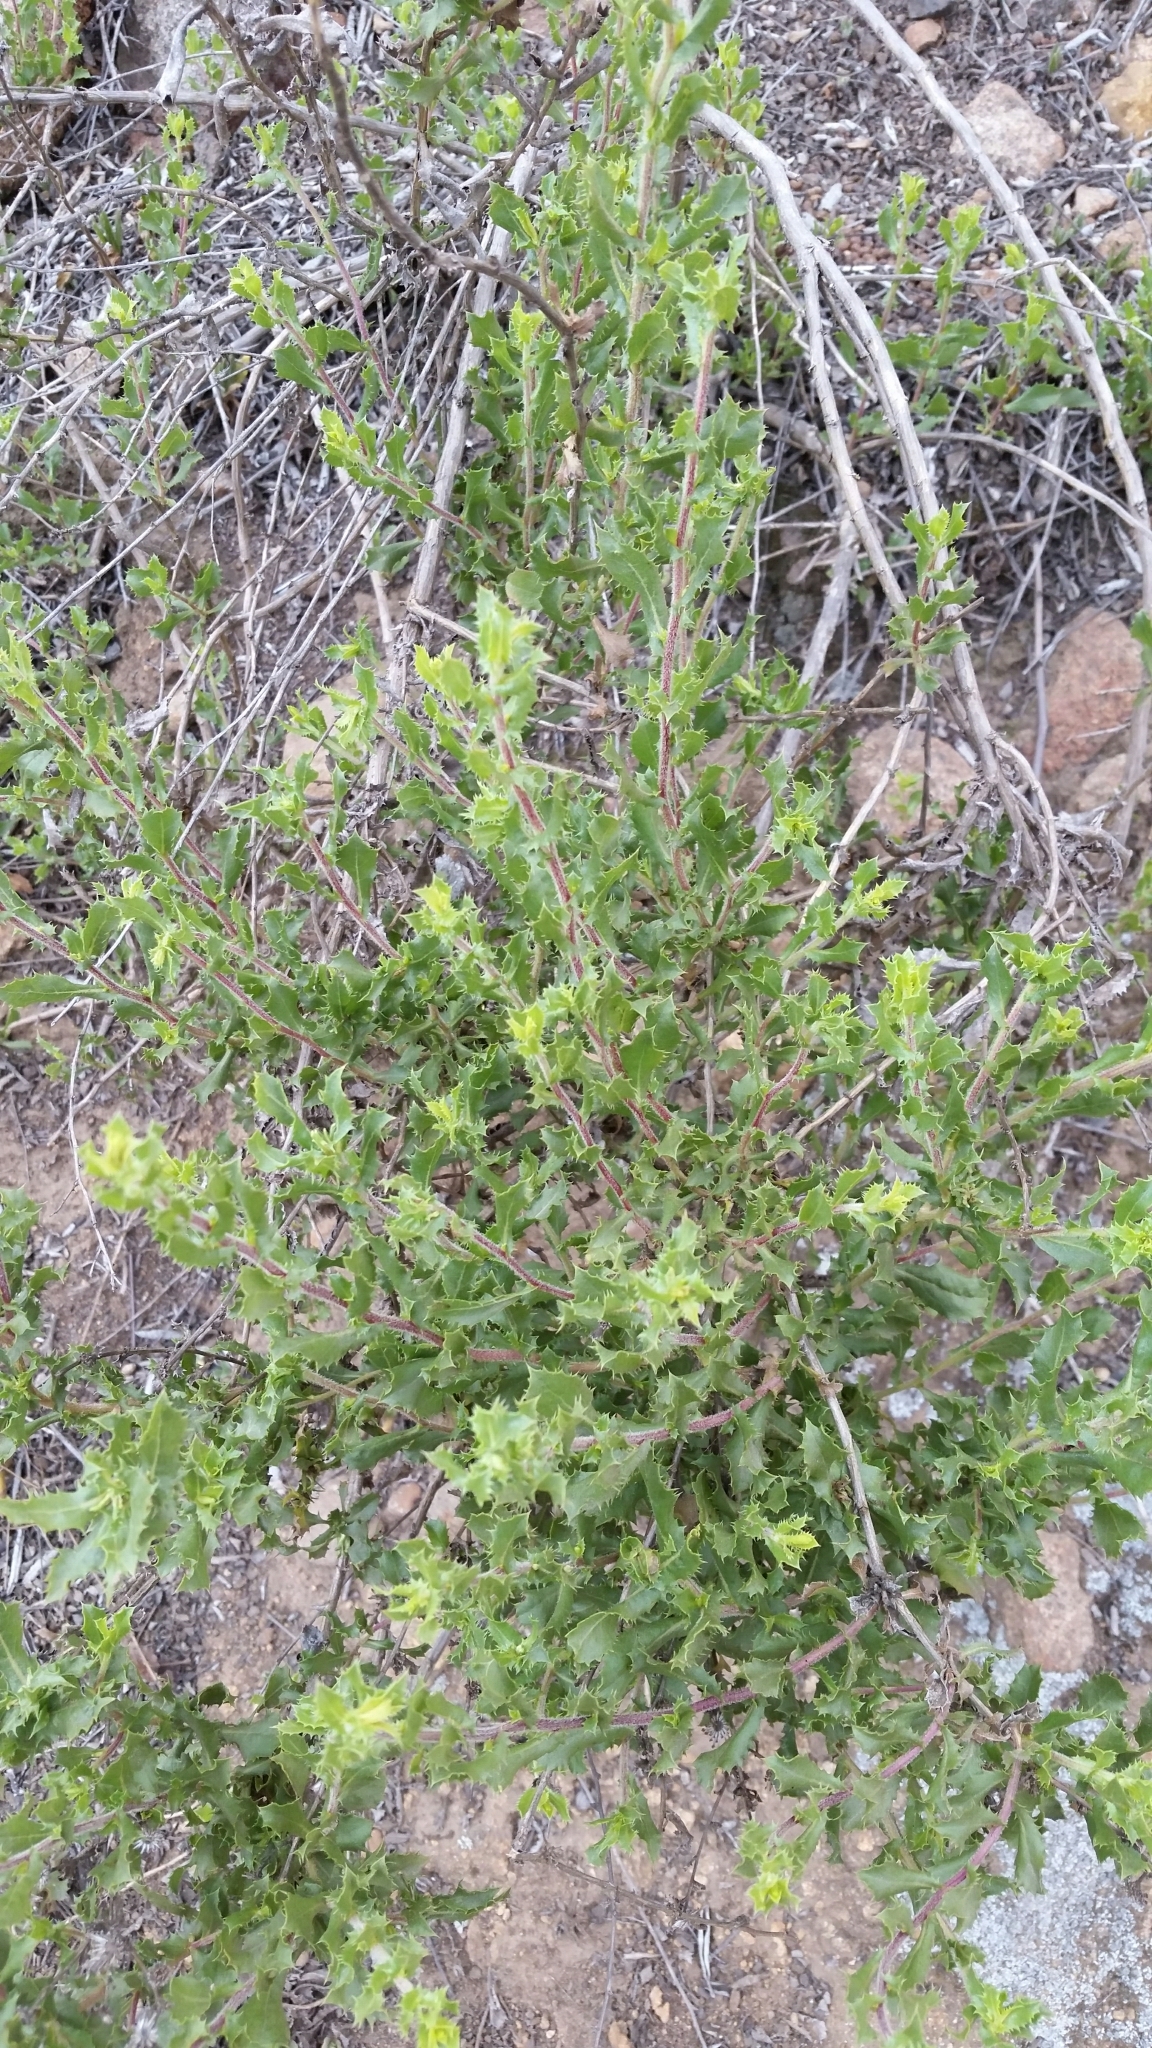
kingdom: Plantae
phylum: Tracheophyta
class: Magnoliopsida
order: Asterales
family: Asteraceae
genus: Hazardia
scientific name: Hazardia squarrosa
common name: Saw-tooth goldenbush
